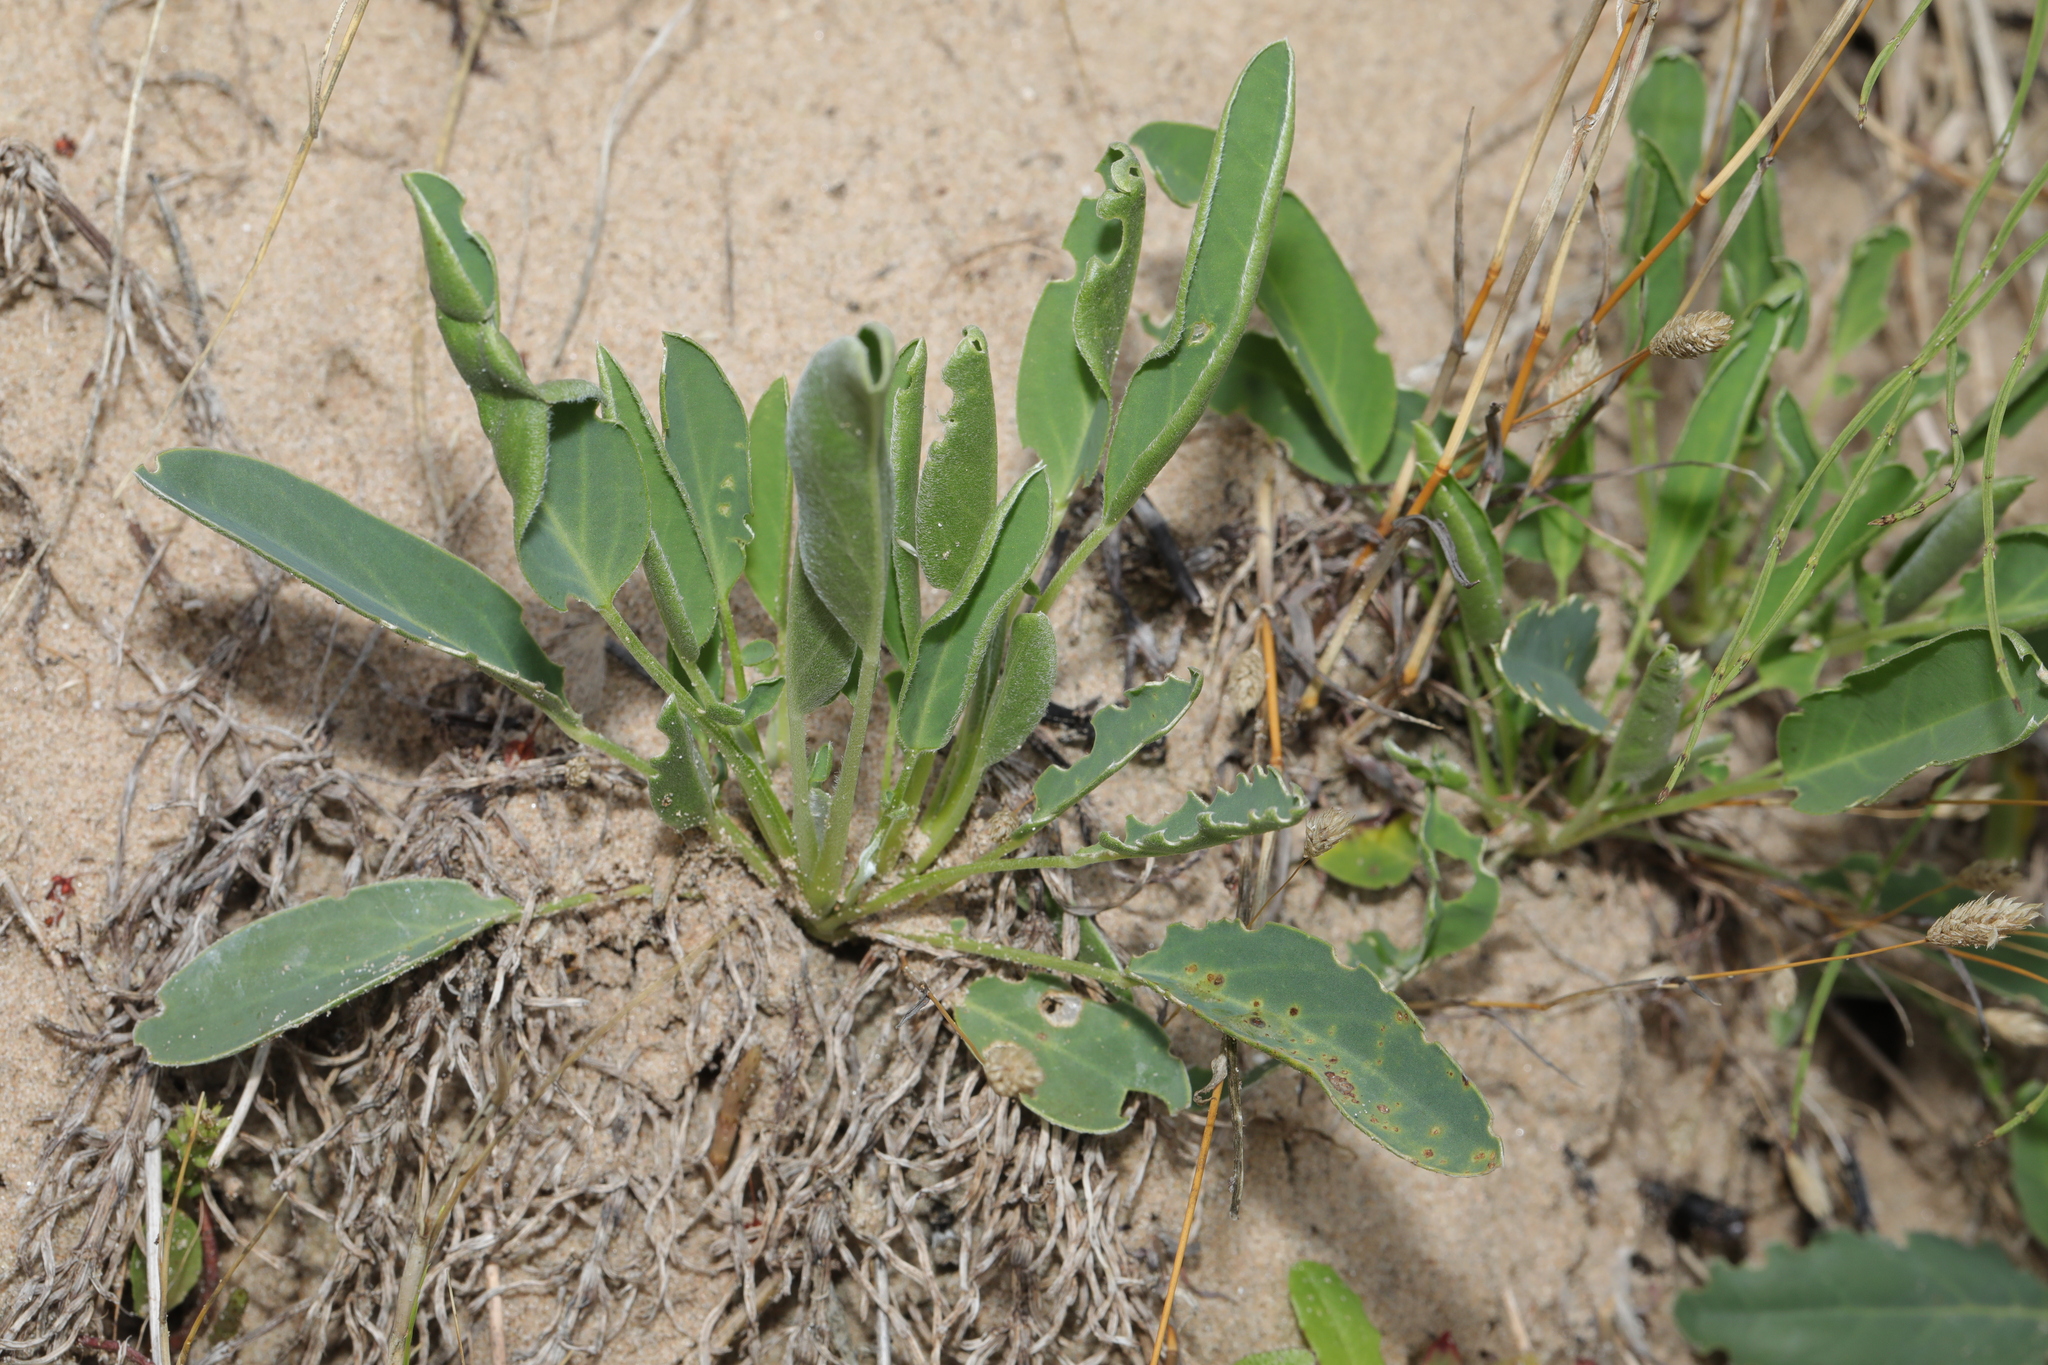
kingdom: Plantae
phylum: Tracheophyta
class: Magnoliopsida
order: Fabales
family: Fabaceae
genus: Anthyllis
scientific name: Anthyllis vulneraria
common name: Kidney vetch
